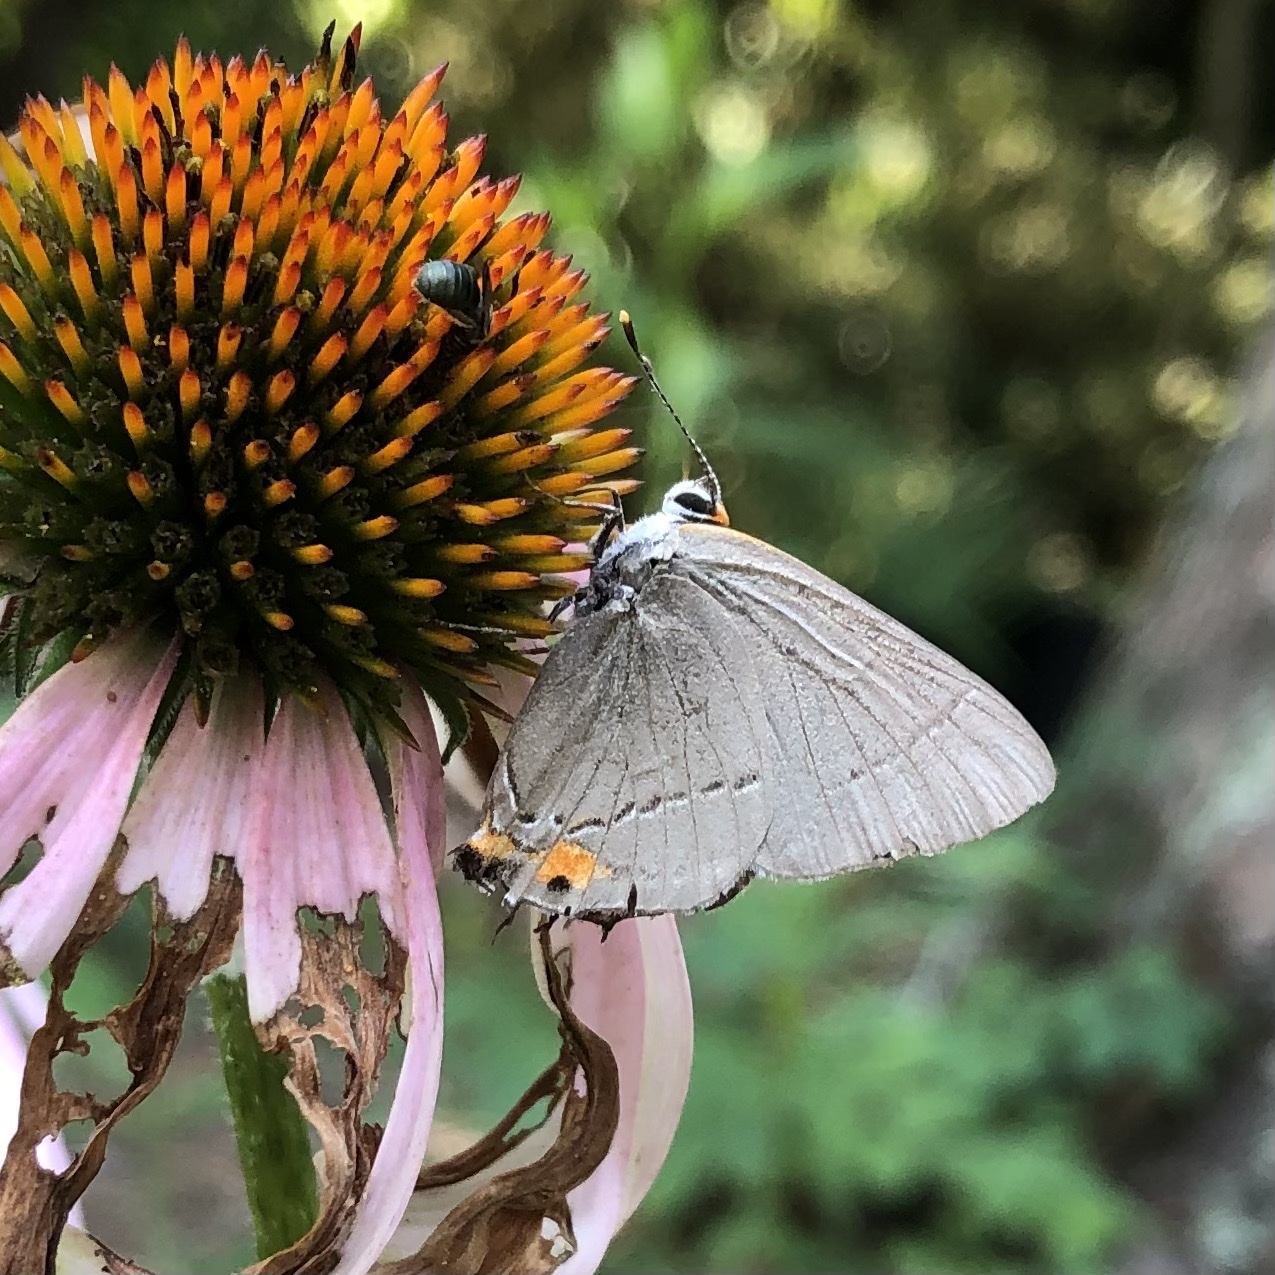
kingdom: Animalia
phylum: Arthropoda
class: Insecta
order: Lepidoptera
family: Lycaenidae
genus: Strymon
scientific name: Strymon melinus
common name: Gray hairstreak
